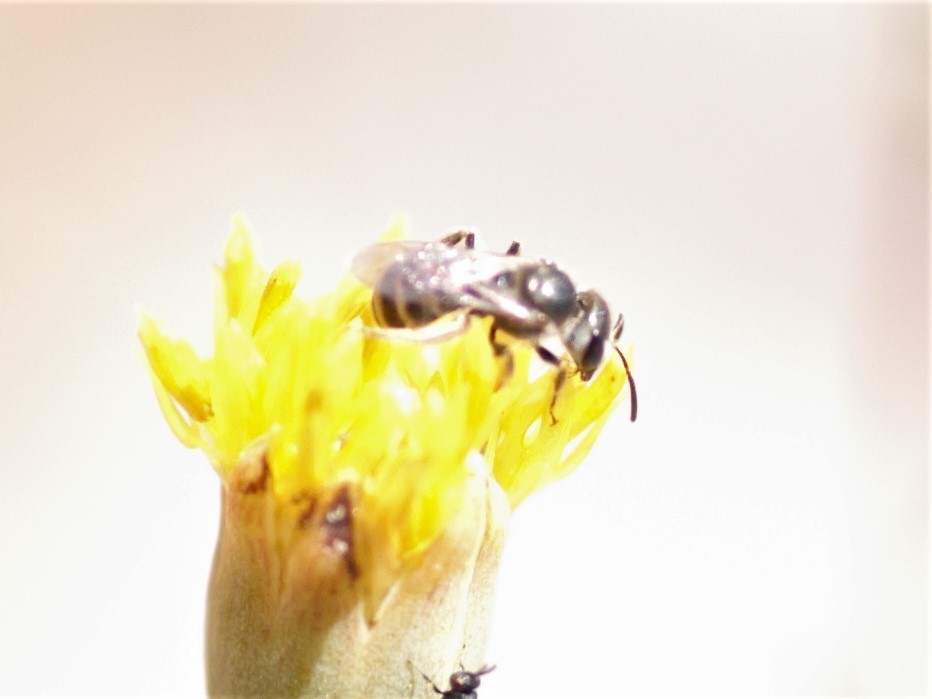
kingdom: Animalia
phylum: Arthropoda
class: Insecta
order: Hymenoptera
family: Halictidae
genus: Halictus
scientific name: Halictus tripartitus
